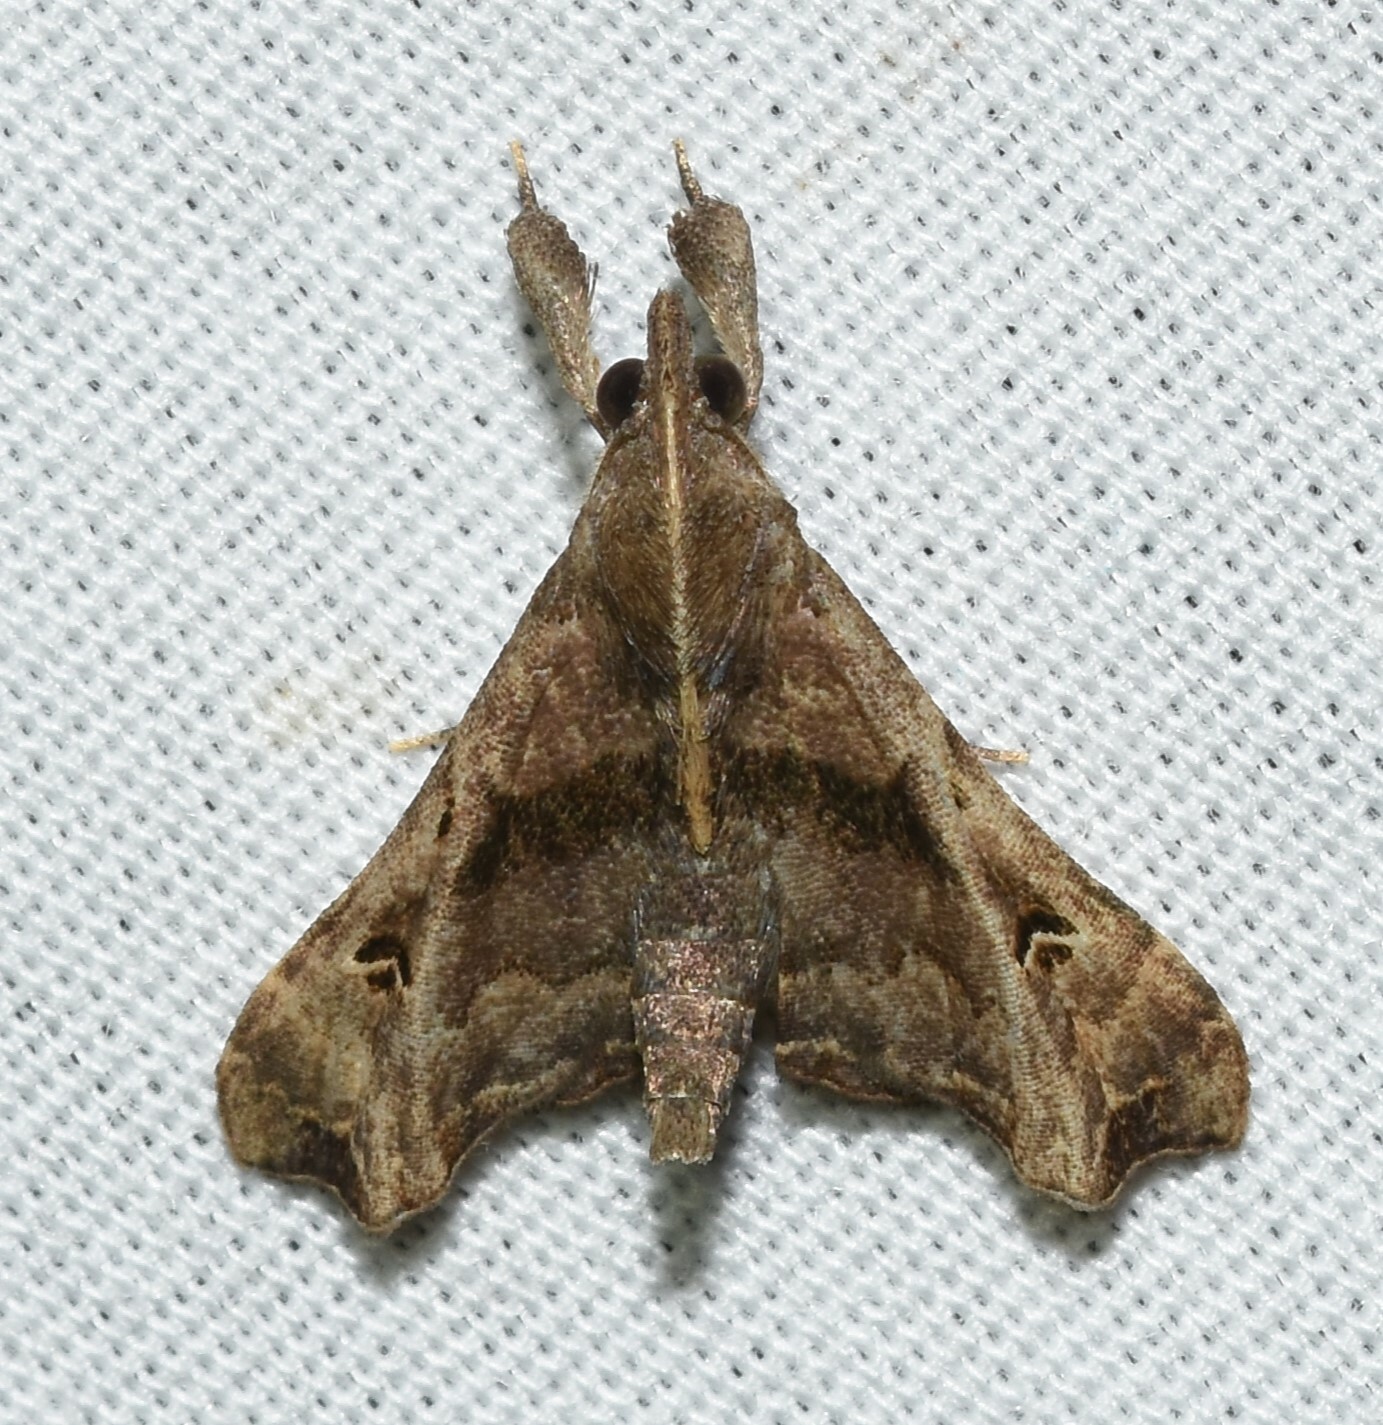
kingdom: Animalia
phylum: Arthropoda
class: Insecta
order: Lepidoptera
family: Erebidae
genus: Palthis
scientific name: Palthis asopialis
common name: Faint-spotted palthis moth
